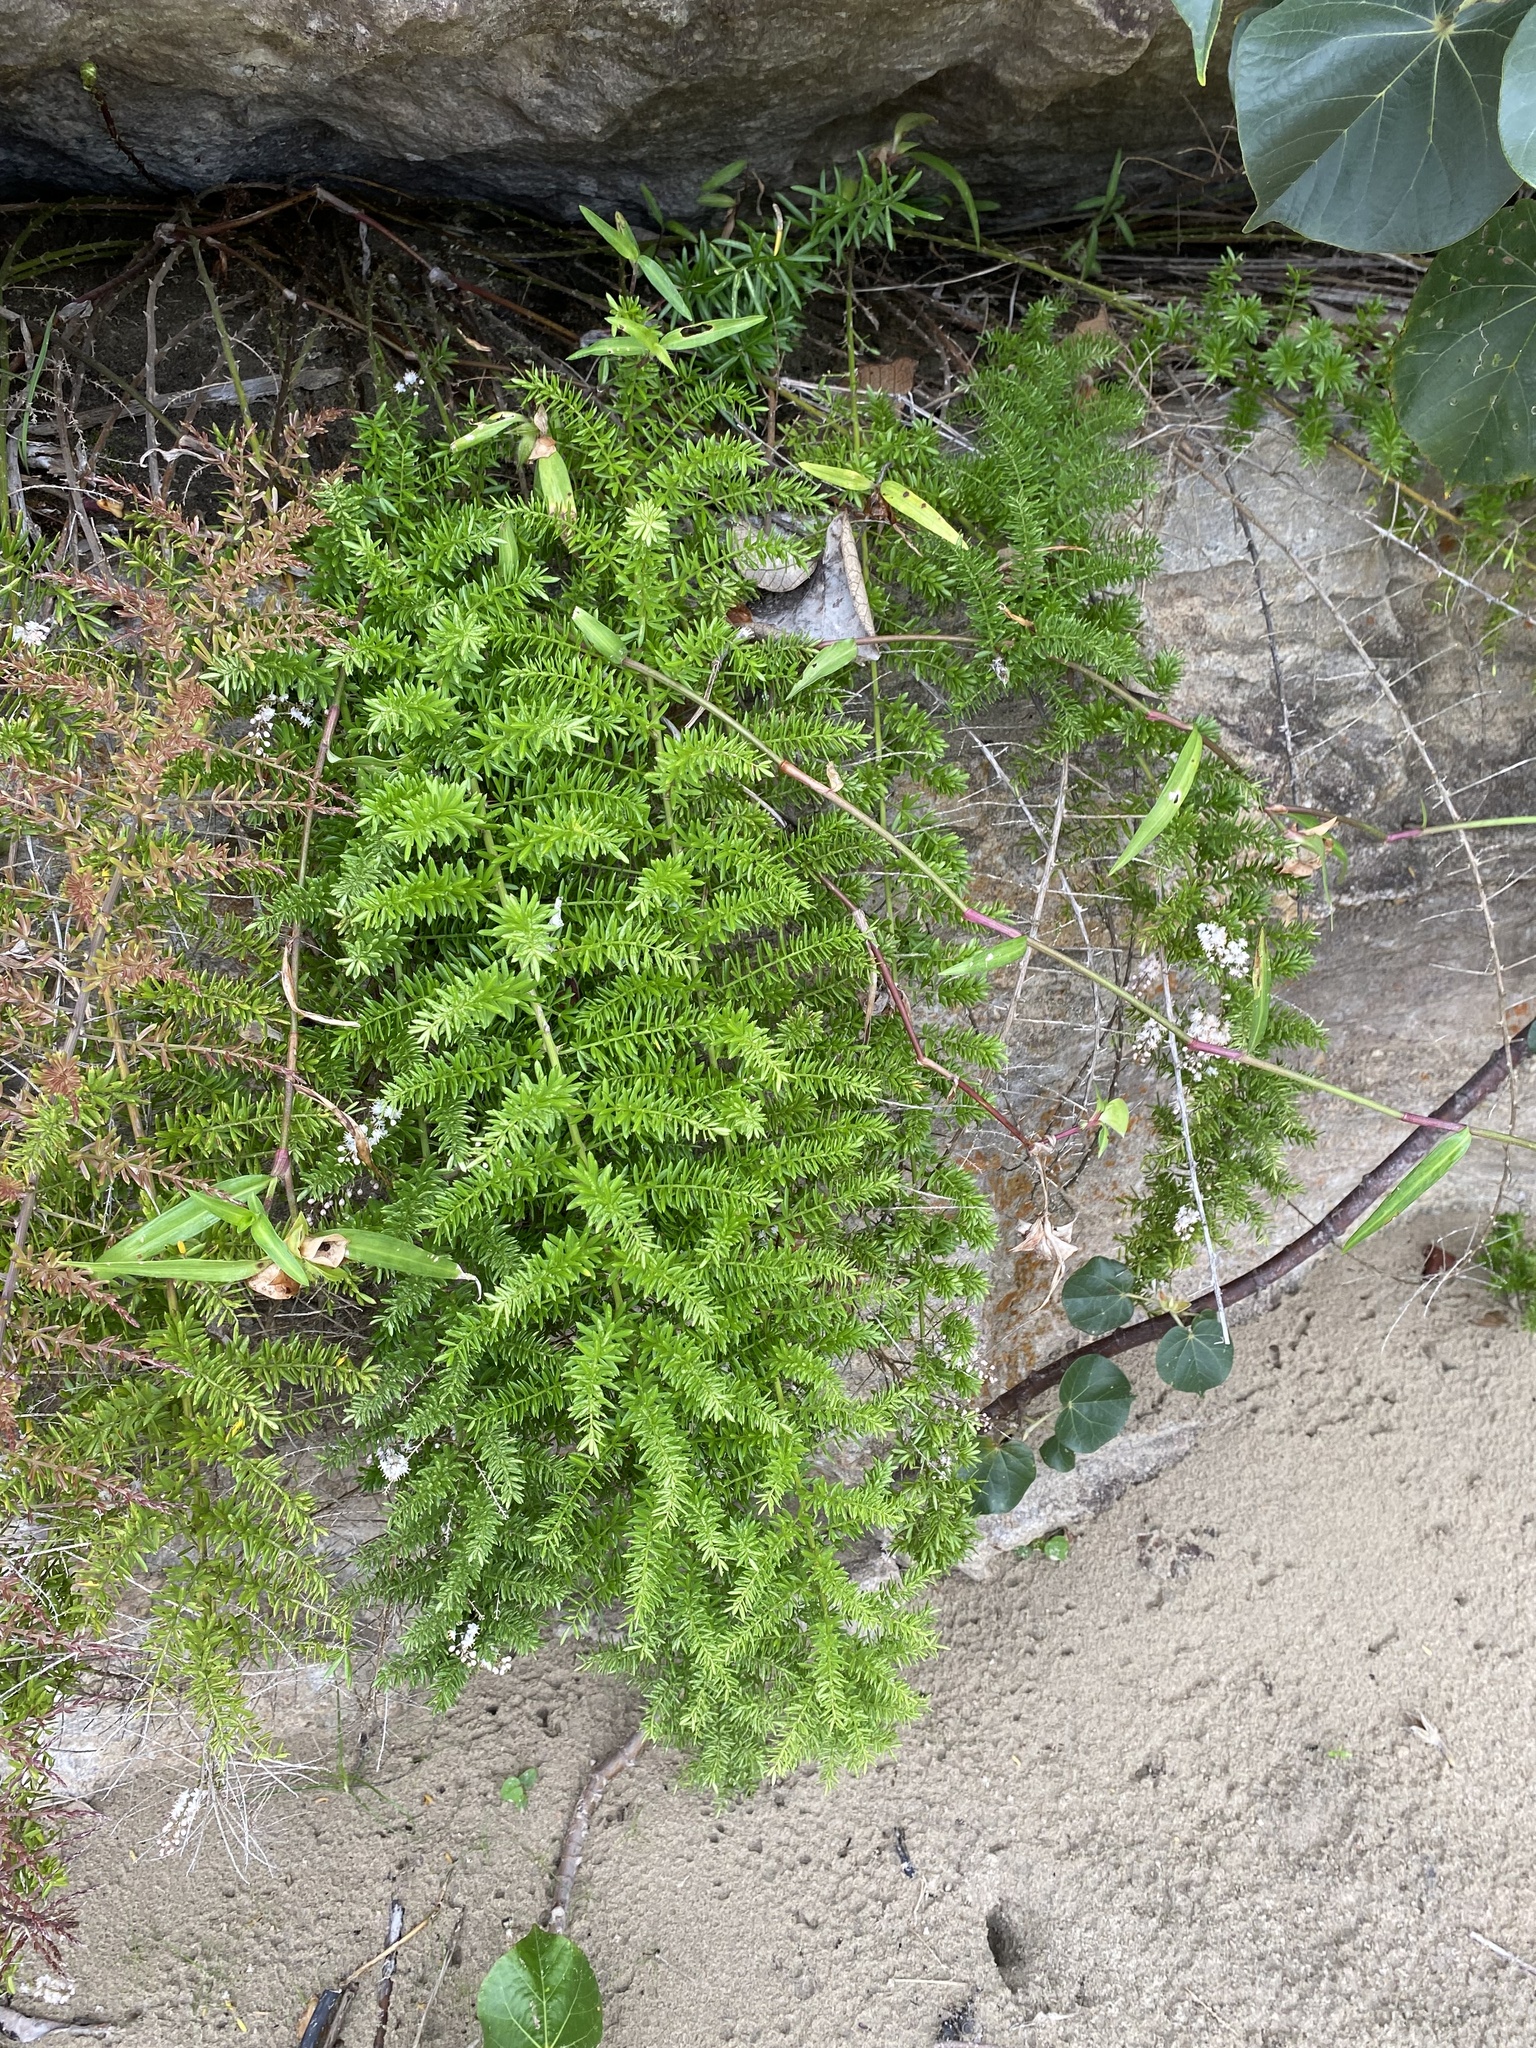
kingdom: Plantae
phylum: Tracheophyta
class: Liliopsida
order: Asparagales
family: Asparagaceae
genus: Asparagus
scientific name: Asparagus densiflorus
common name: Asparagus fern
